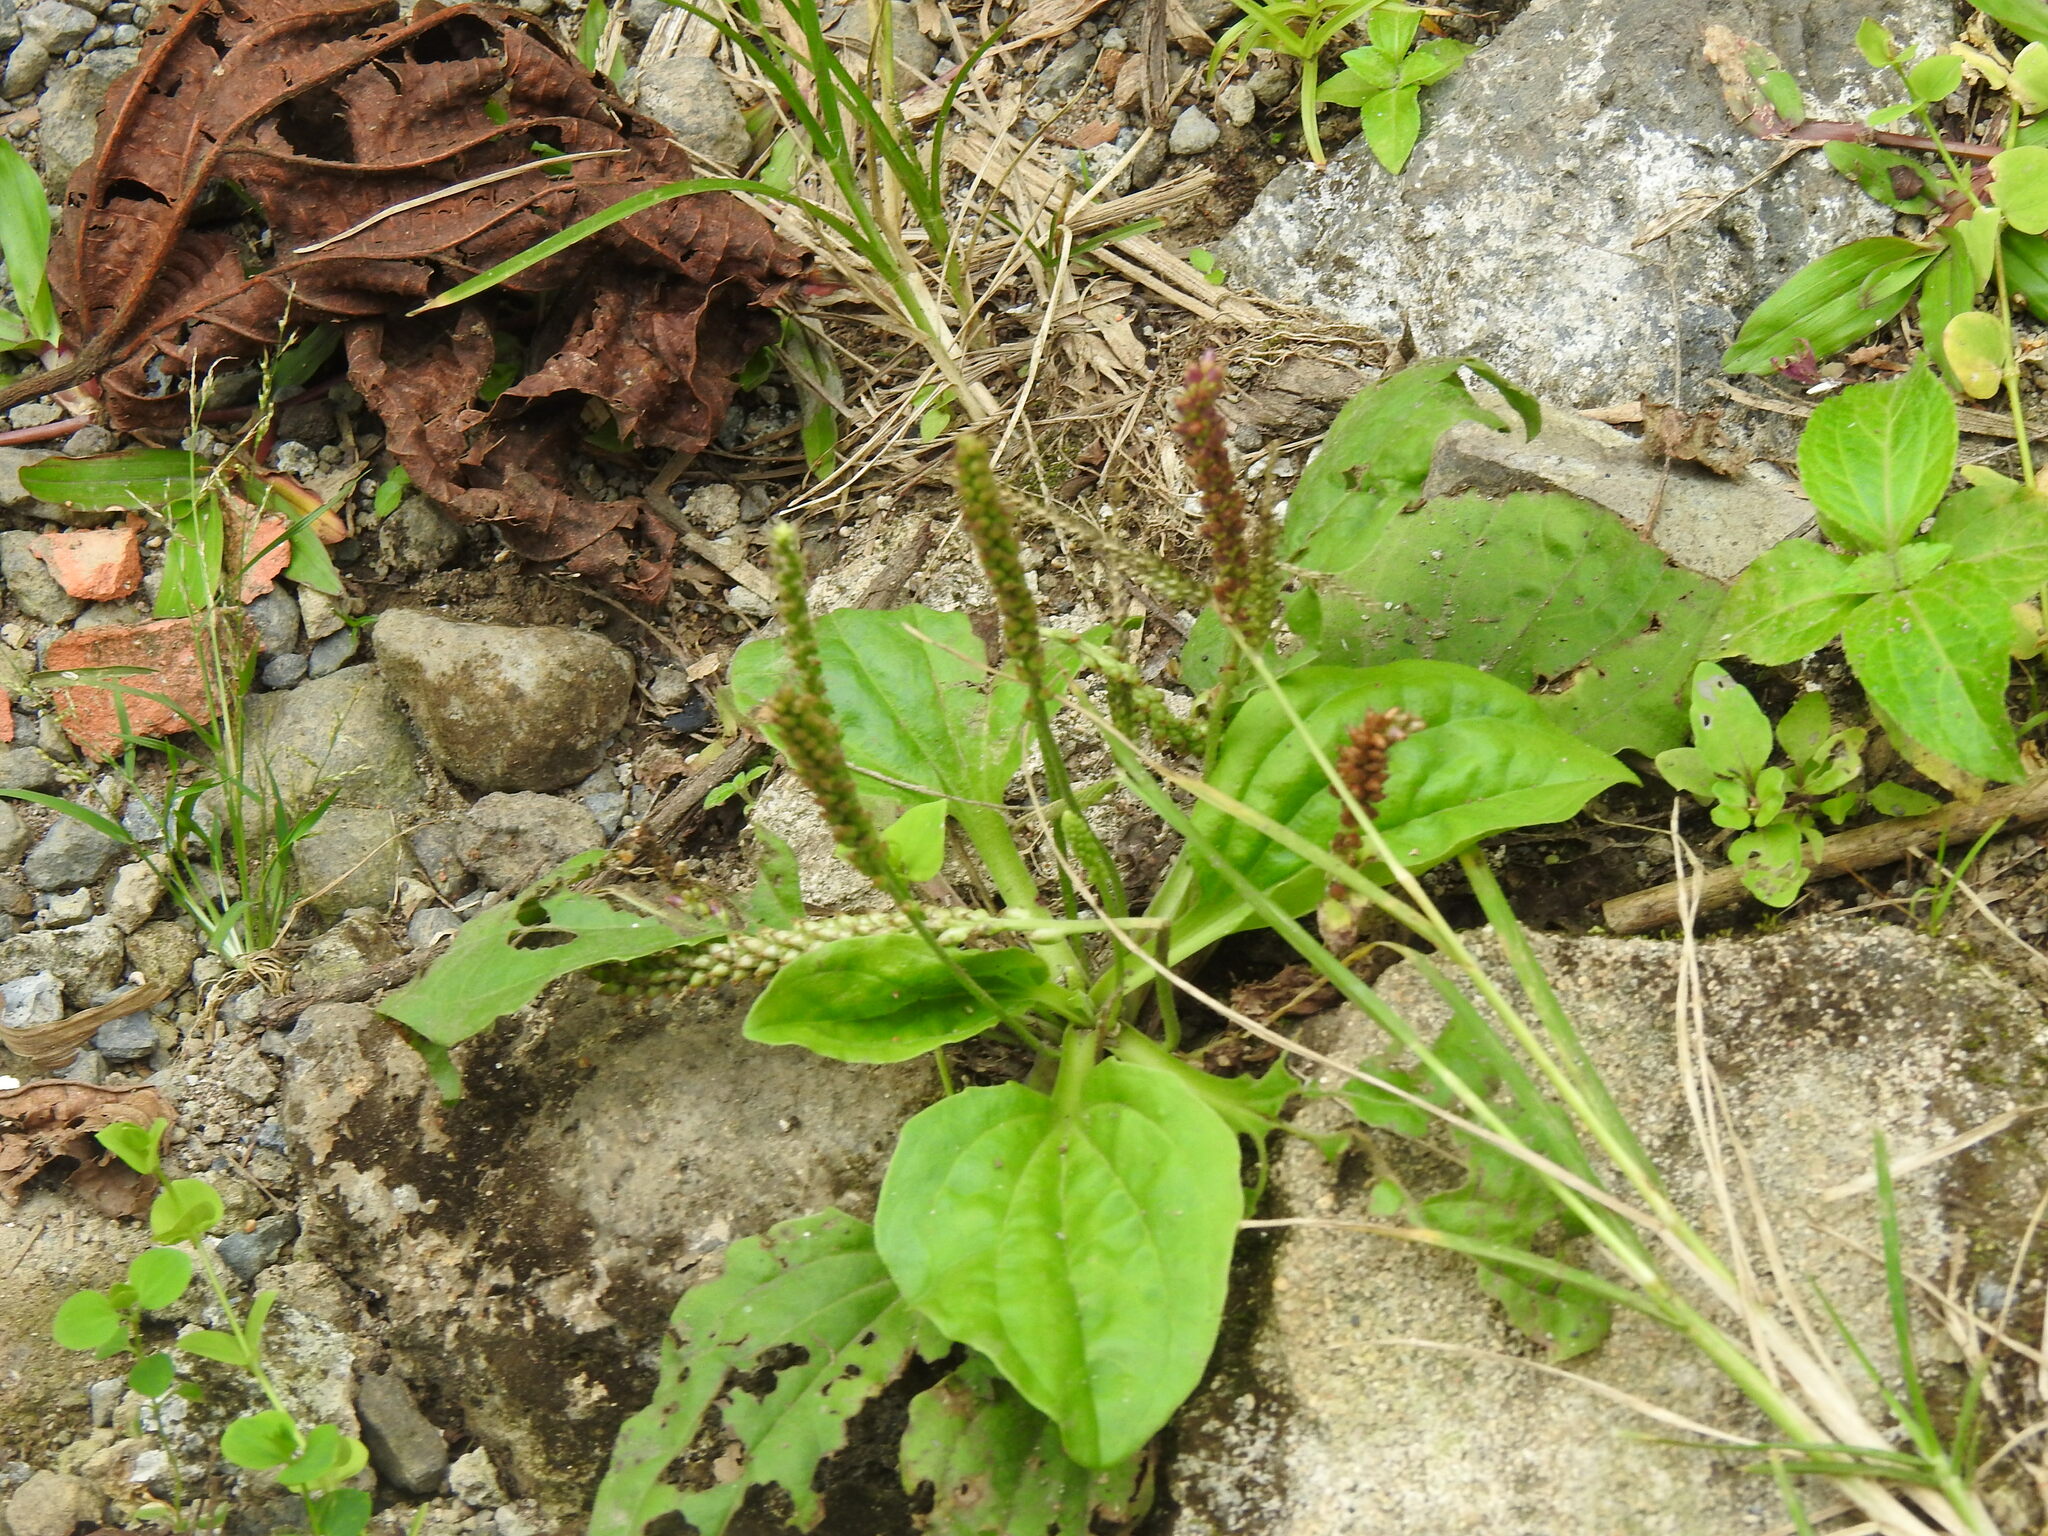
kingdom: Plantae
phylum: Tracheophyta
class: Magnoliopsida
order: Lamiales
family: Plantaginaceae
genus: Plantago
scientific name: Plantago major
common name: Common plantain
